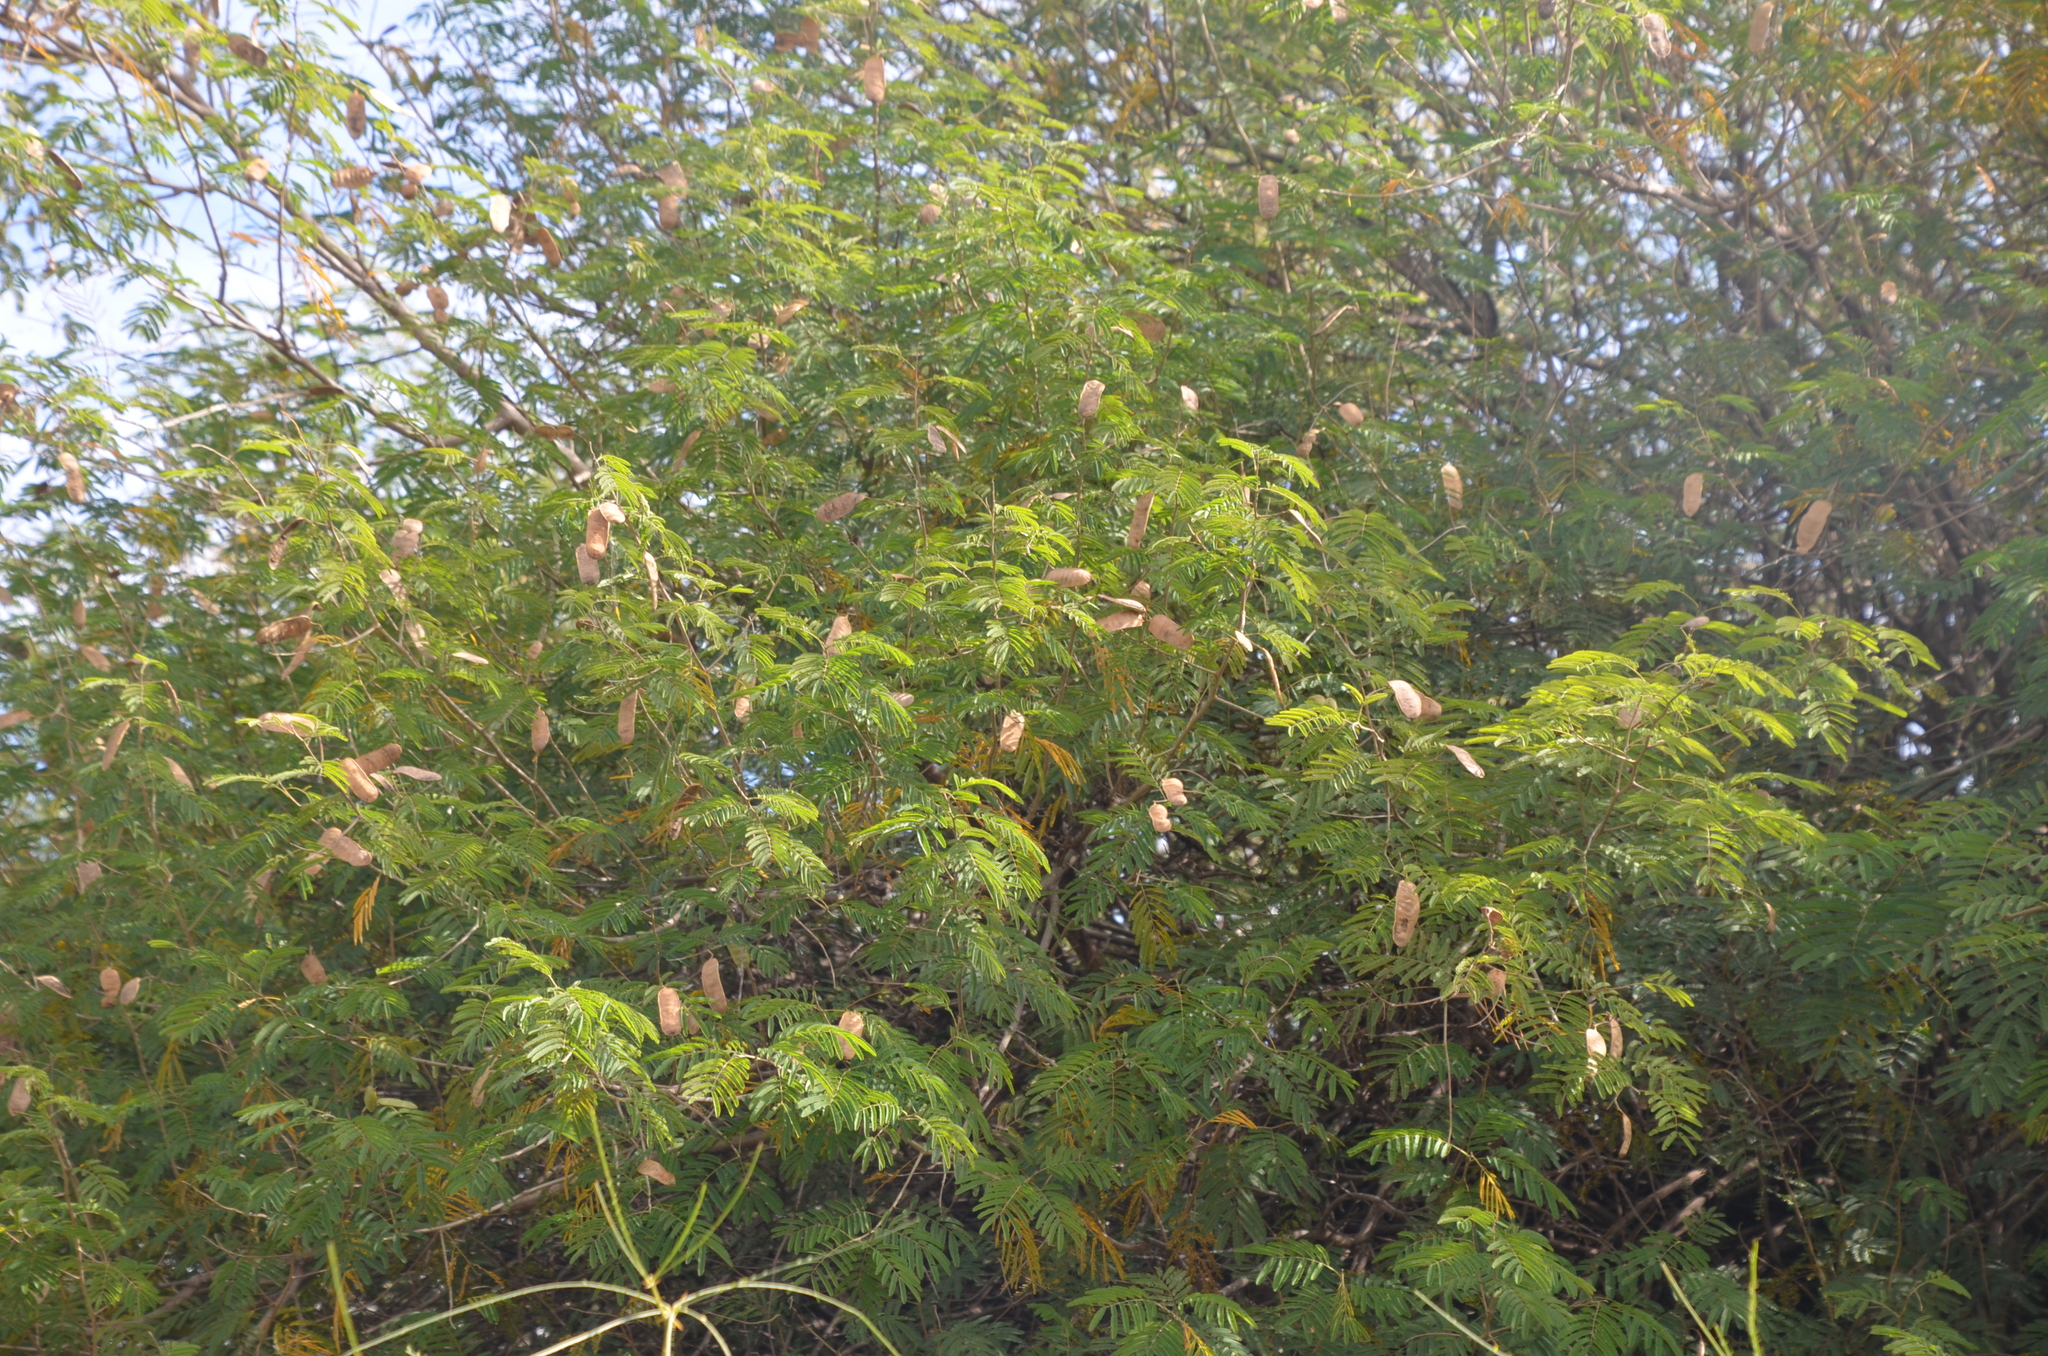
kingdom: Plantae
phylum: Tracheophyta
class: Magnoliopsida
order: Fabales
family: Fabaceae
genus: Senegalia
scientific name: Senegalia bonariensis
